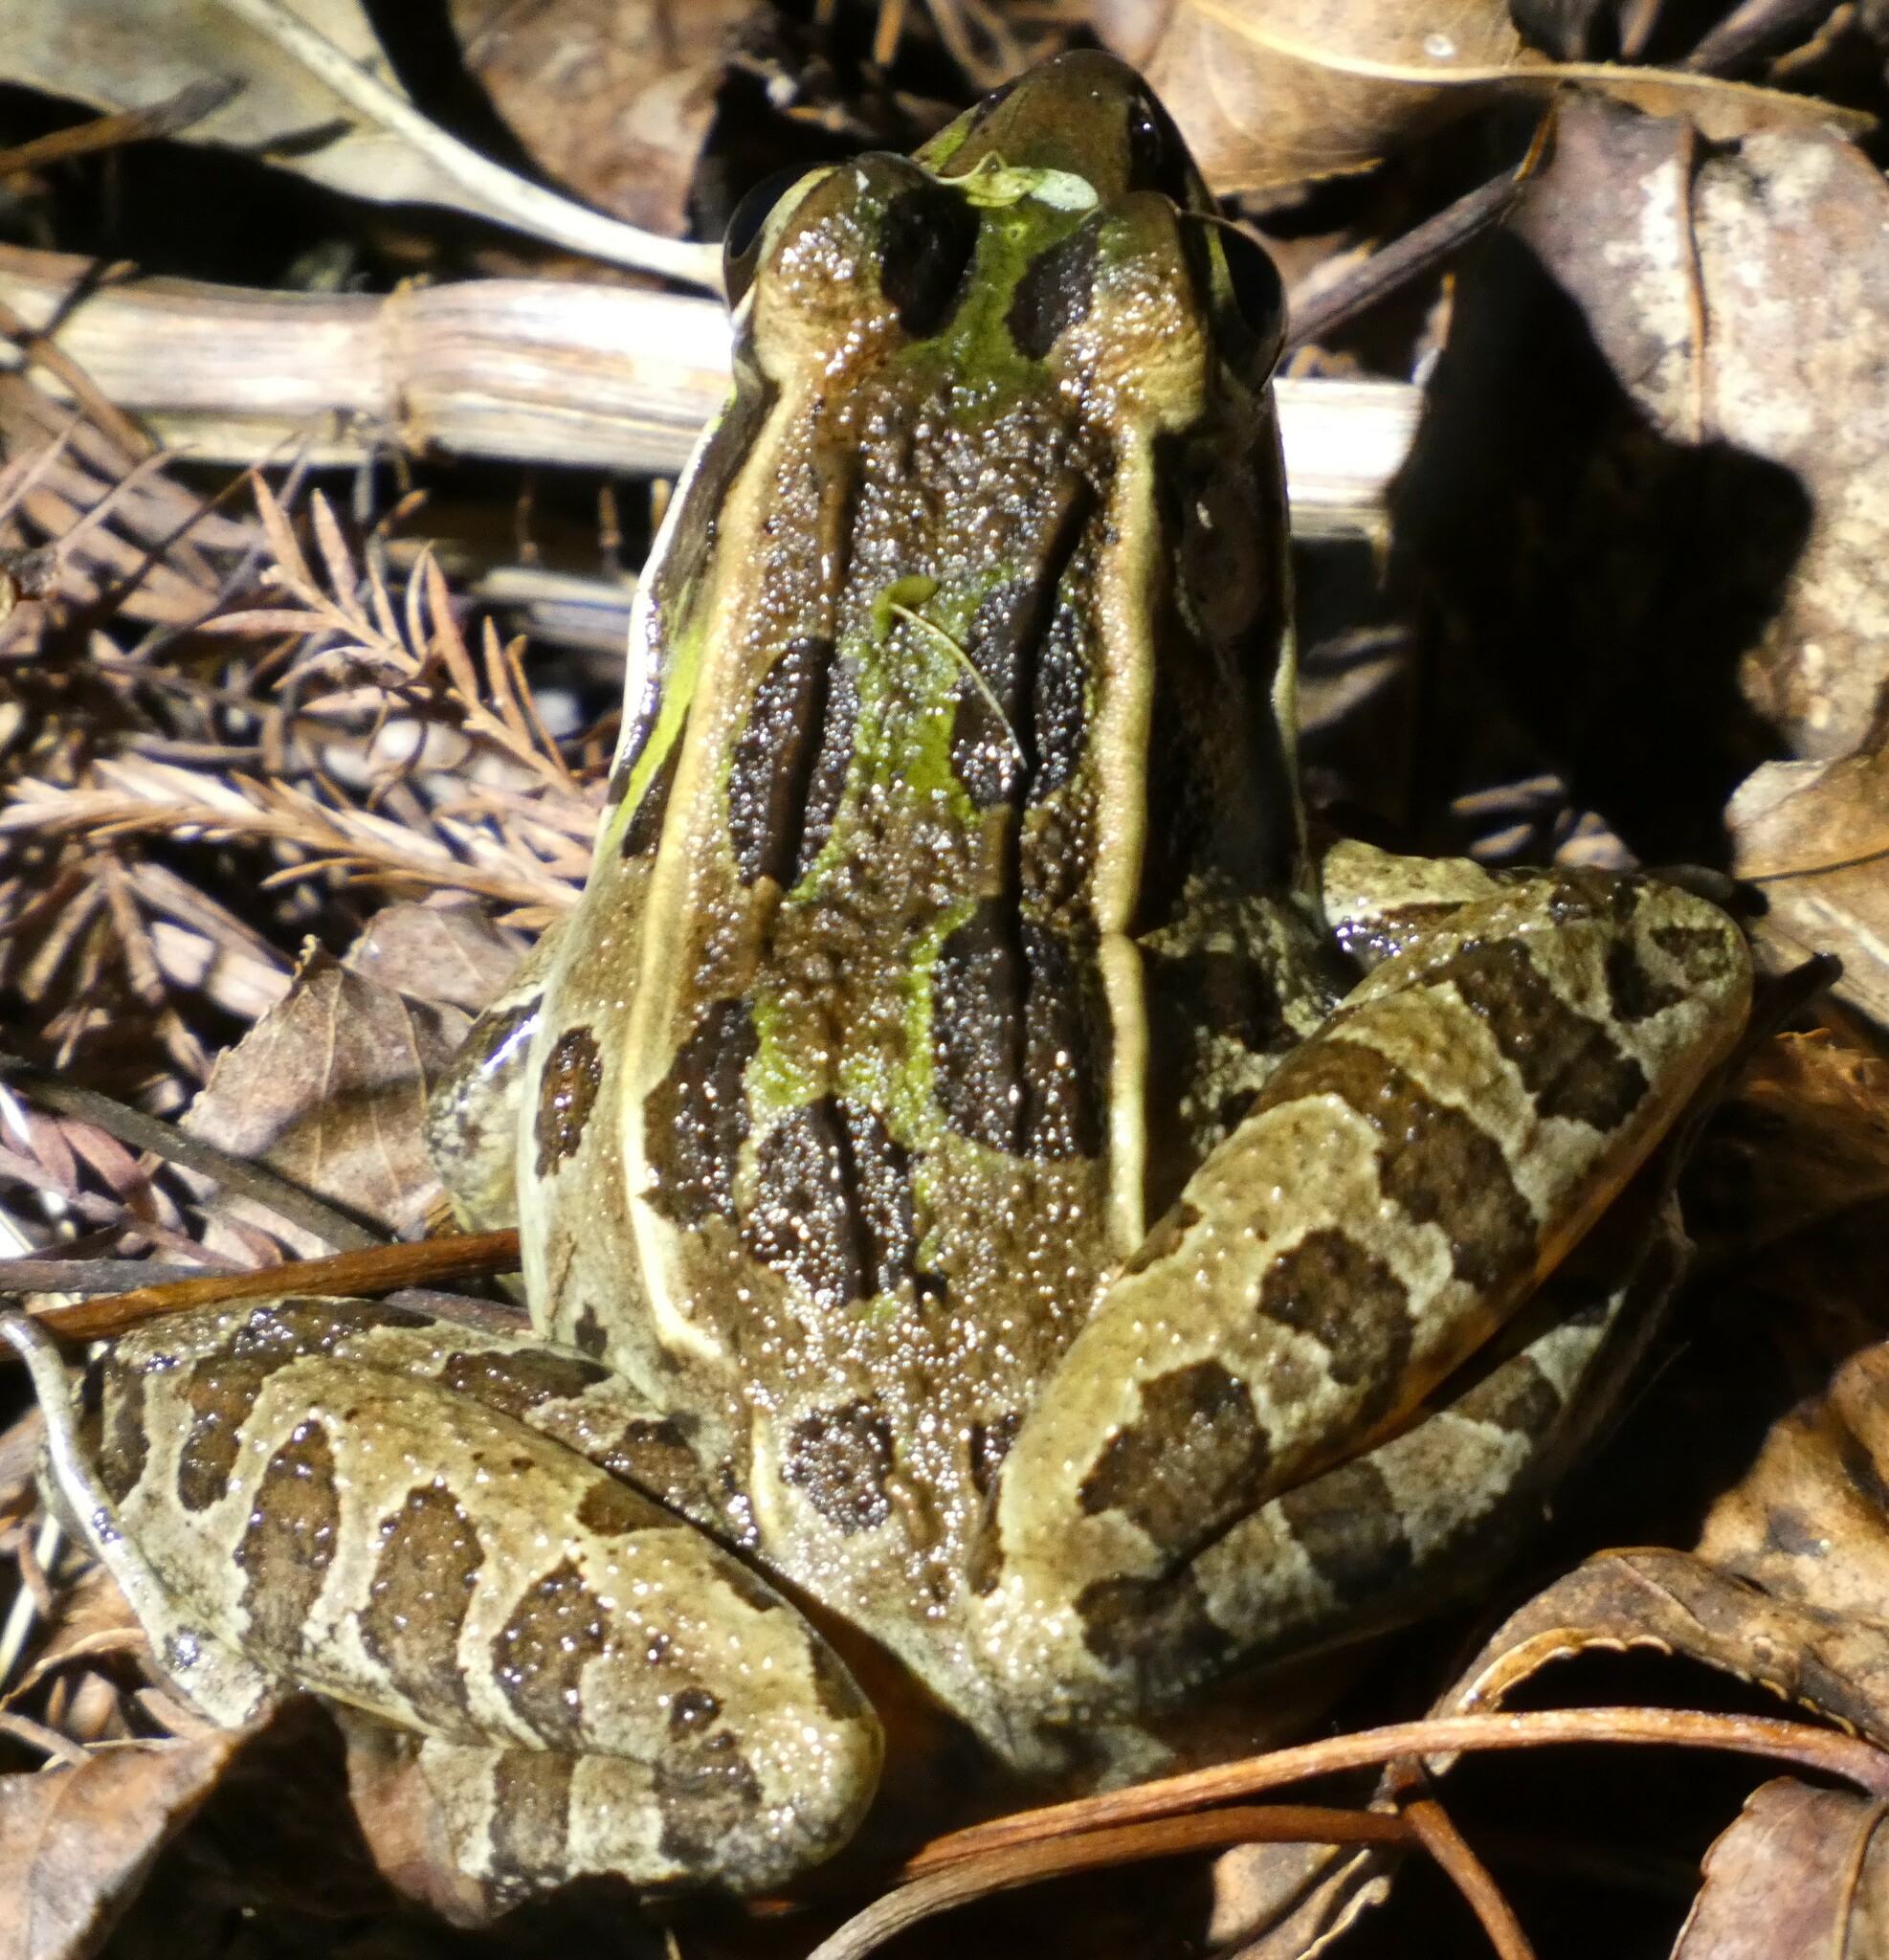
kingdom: Animalia
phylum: Chordata
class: Amphibia
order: Anura
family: Ranidae
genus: Lithobates
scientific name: Lithobates sphenocephalus
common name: Southern leopard frog
